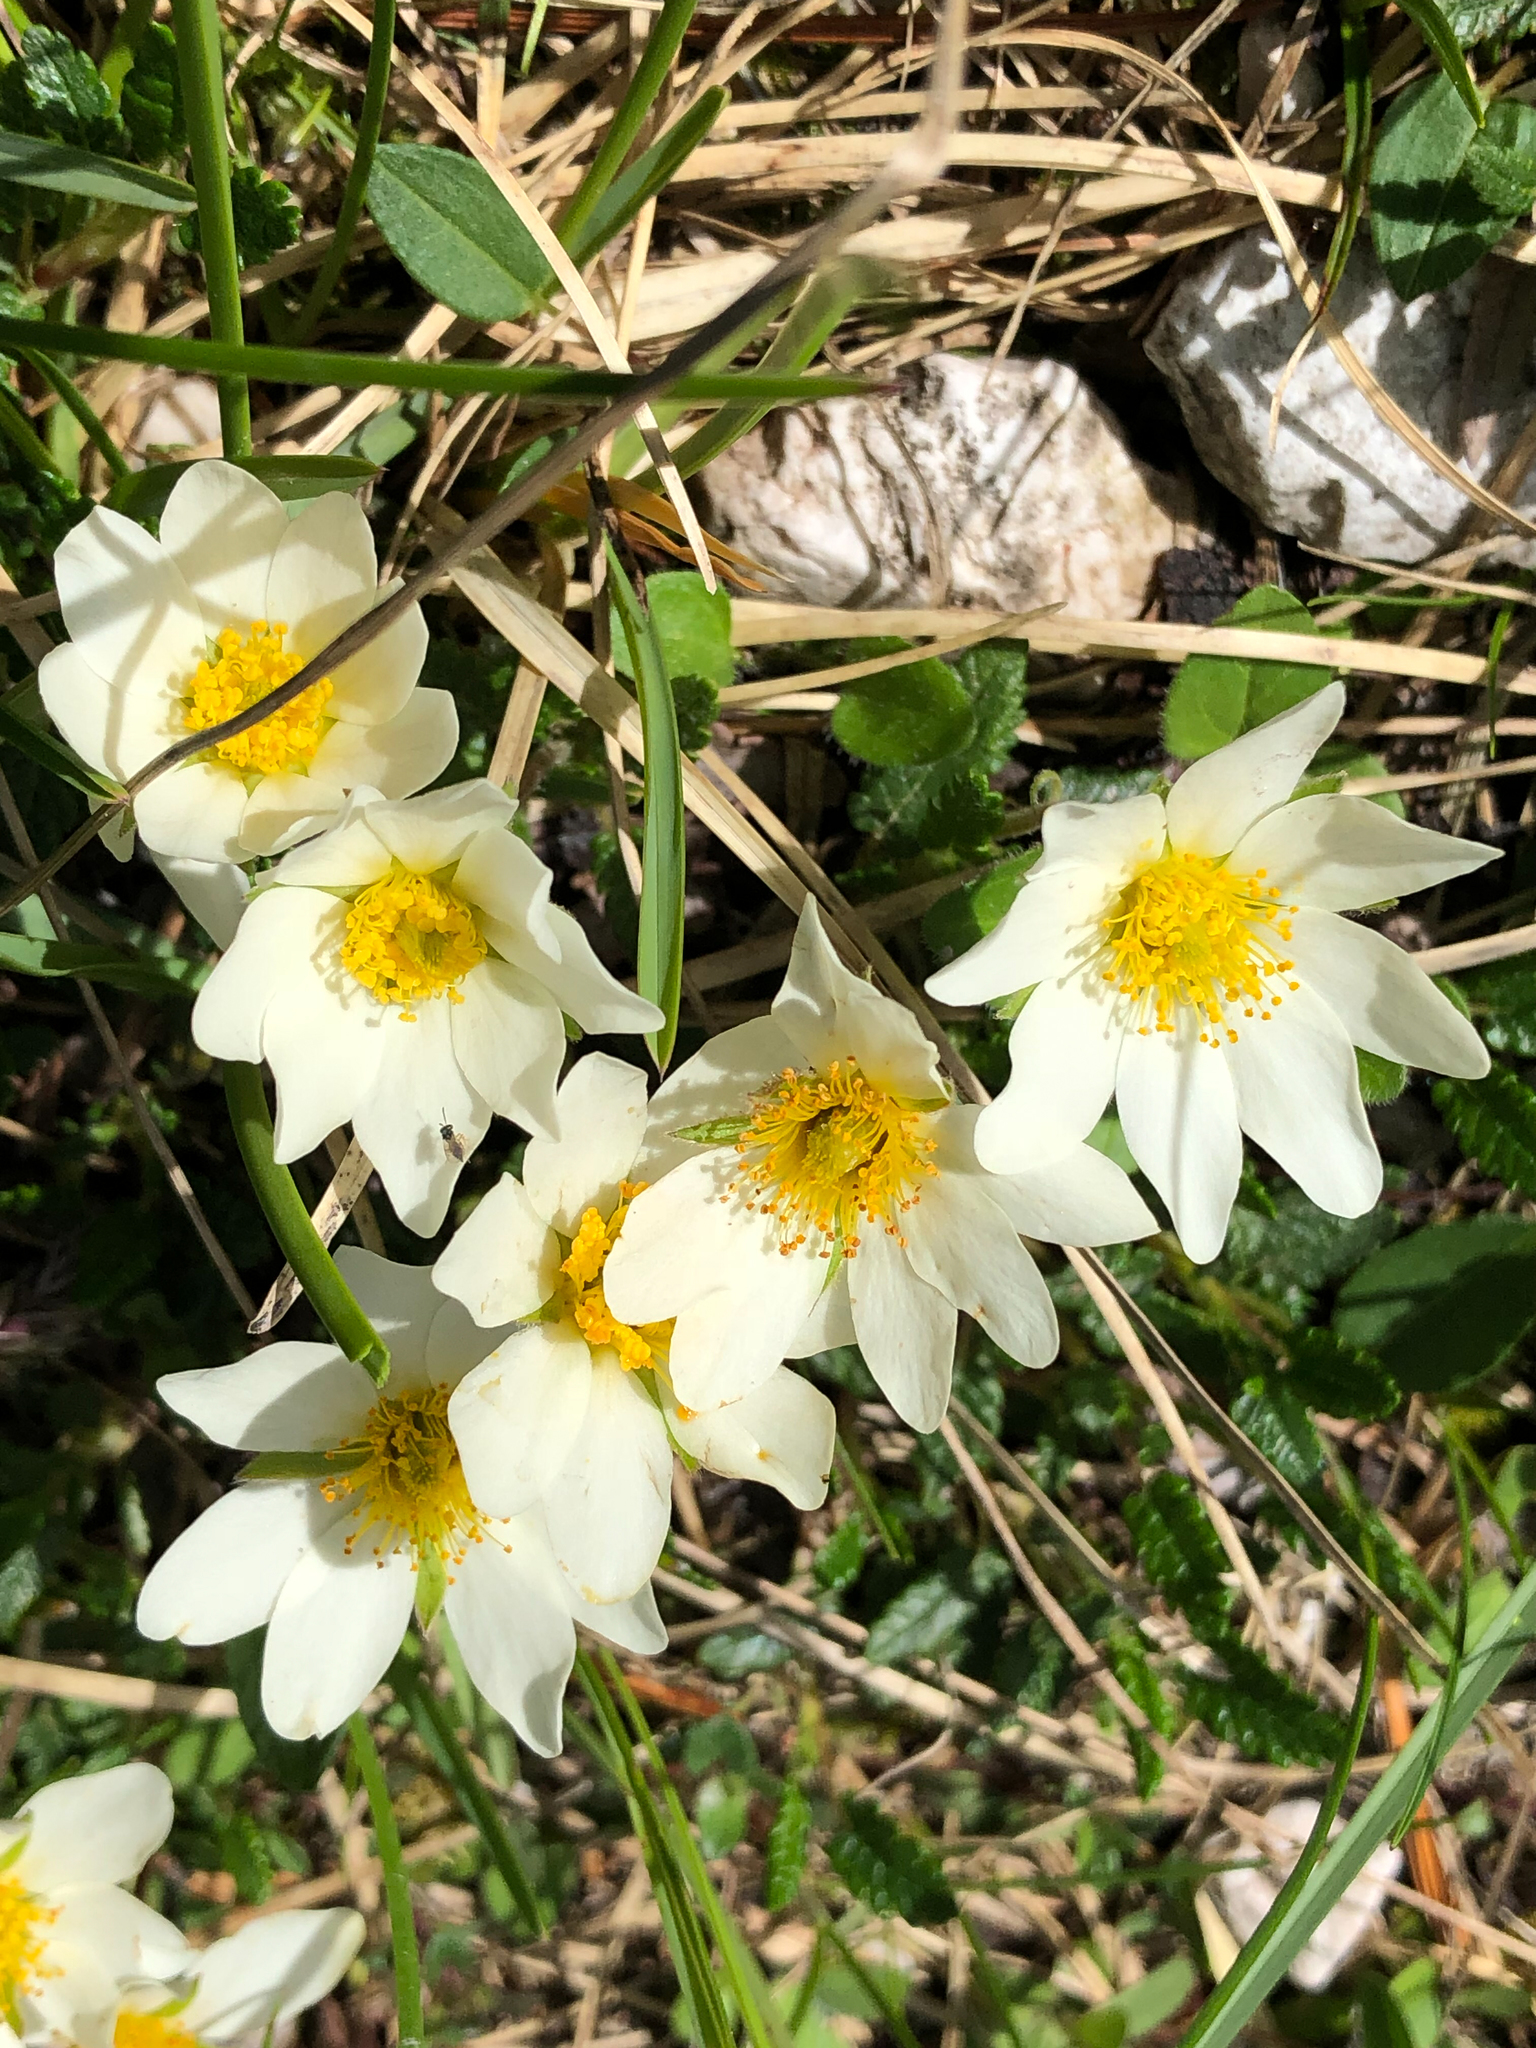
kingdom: Plantae
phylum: Tracheophyta
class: Magnoliopsida
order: Rosales
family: Rosaceae
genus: Dryas
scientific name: Dryas octopetala
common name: Eight-petal mountain-avens
